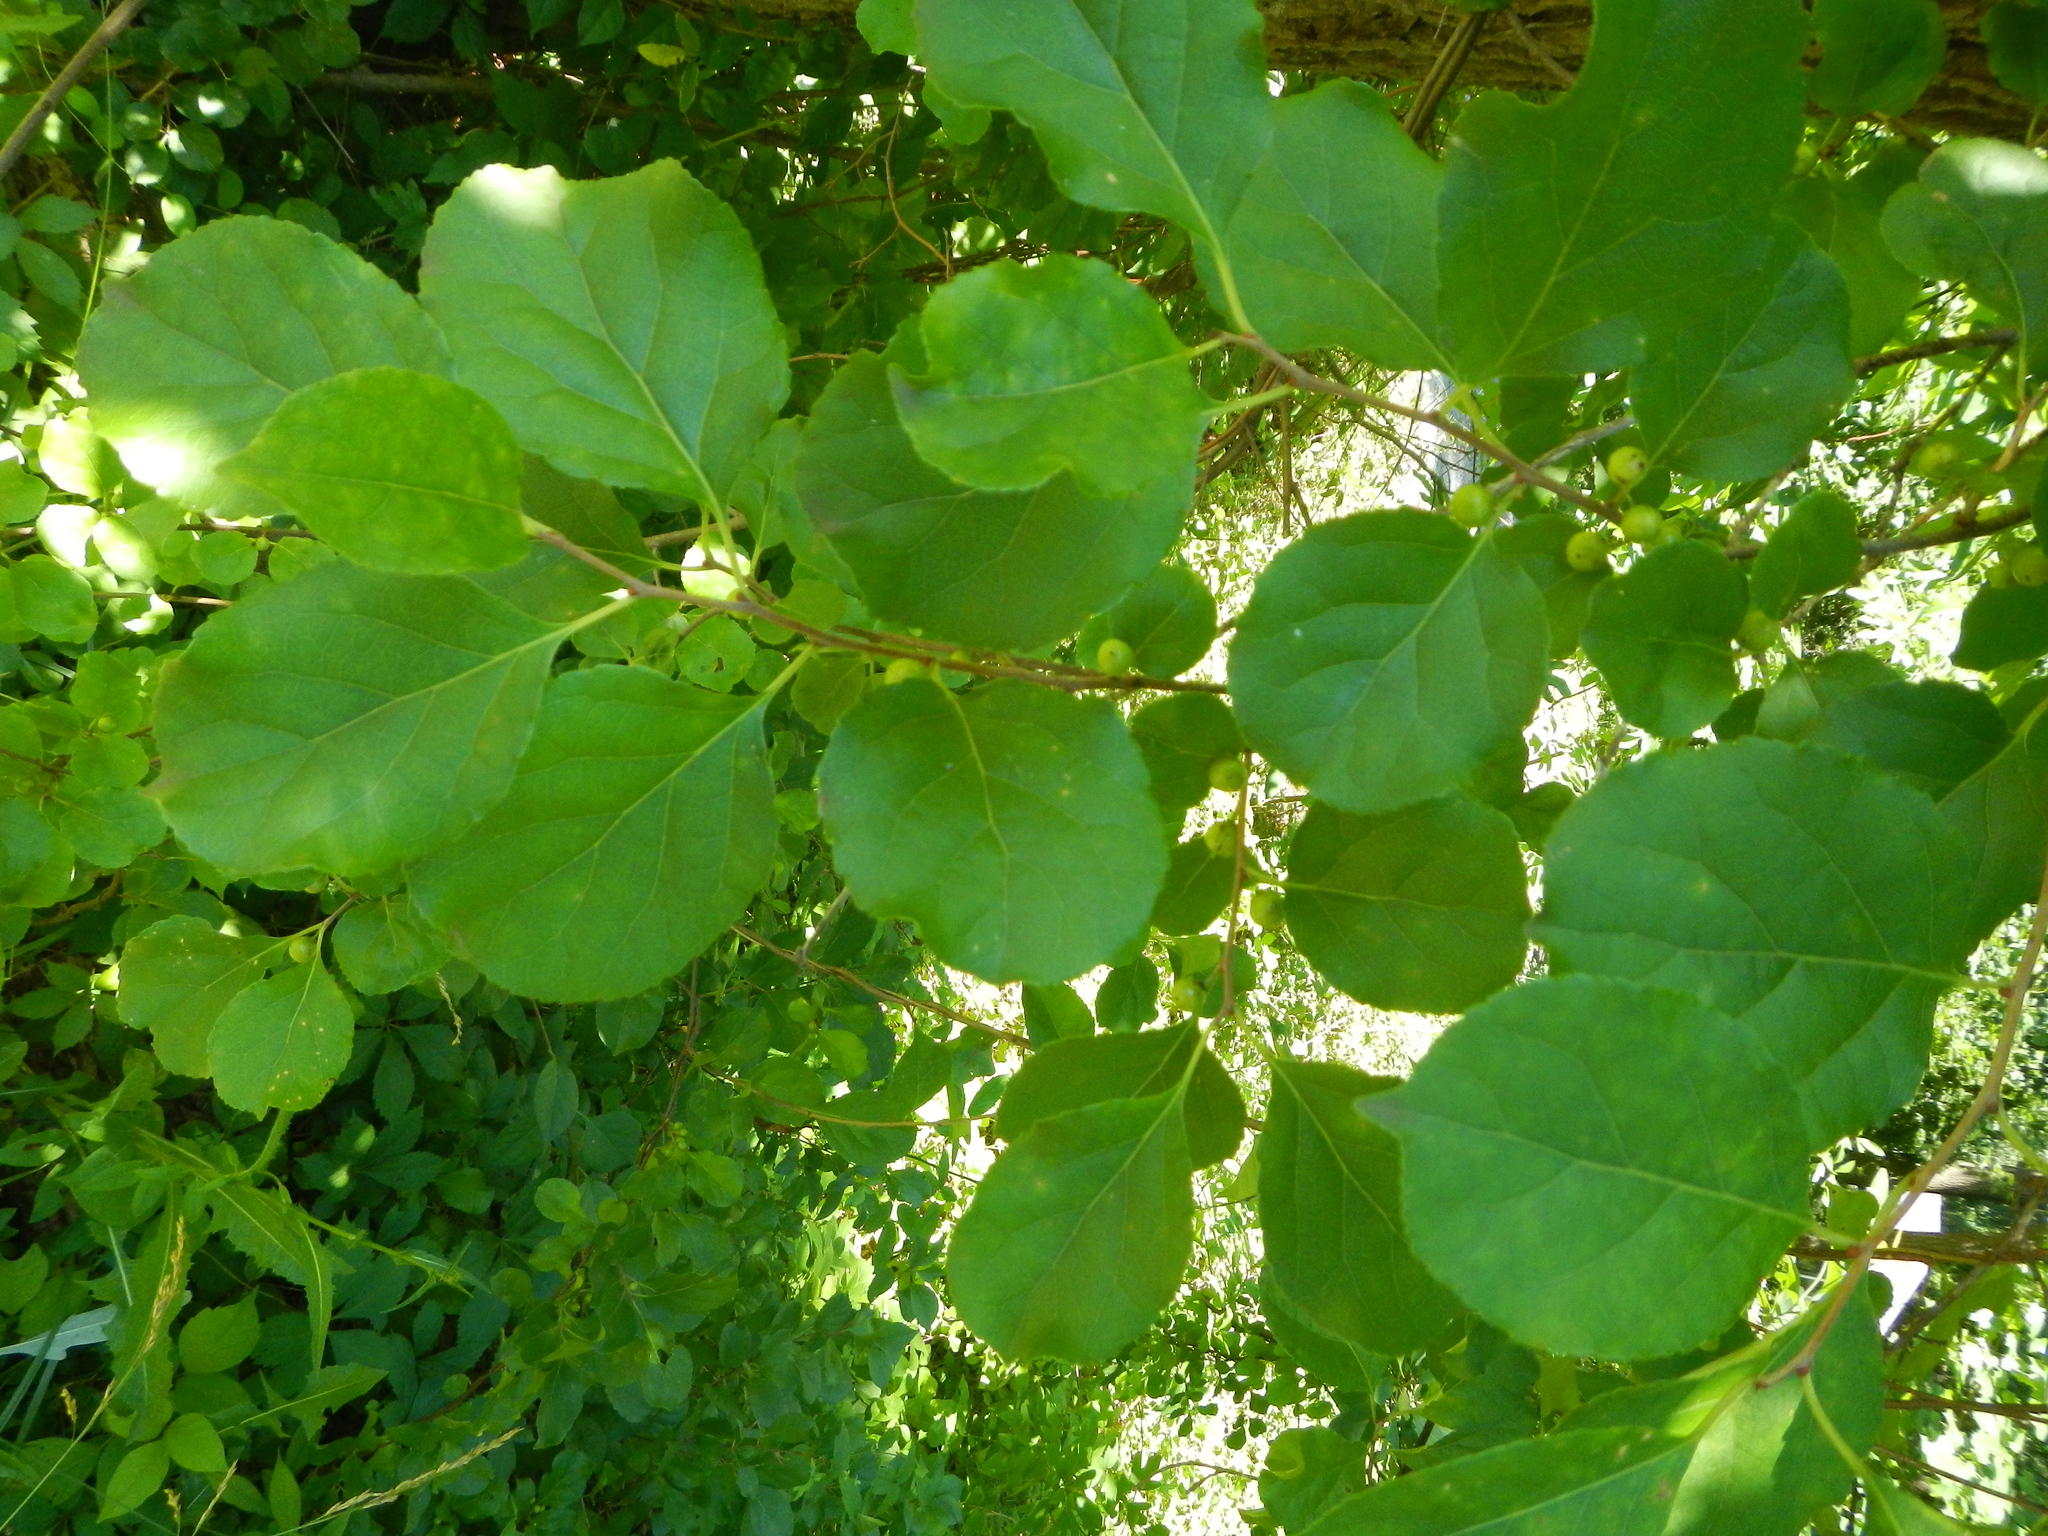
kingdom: Plantae
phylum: Tracheophyta
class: Magnoliopsida
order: Celastrales
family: Celastraceae
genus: Celastrus
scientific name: Celastrus orbiculatus
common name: Oriental bittersweet
